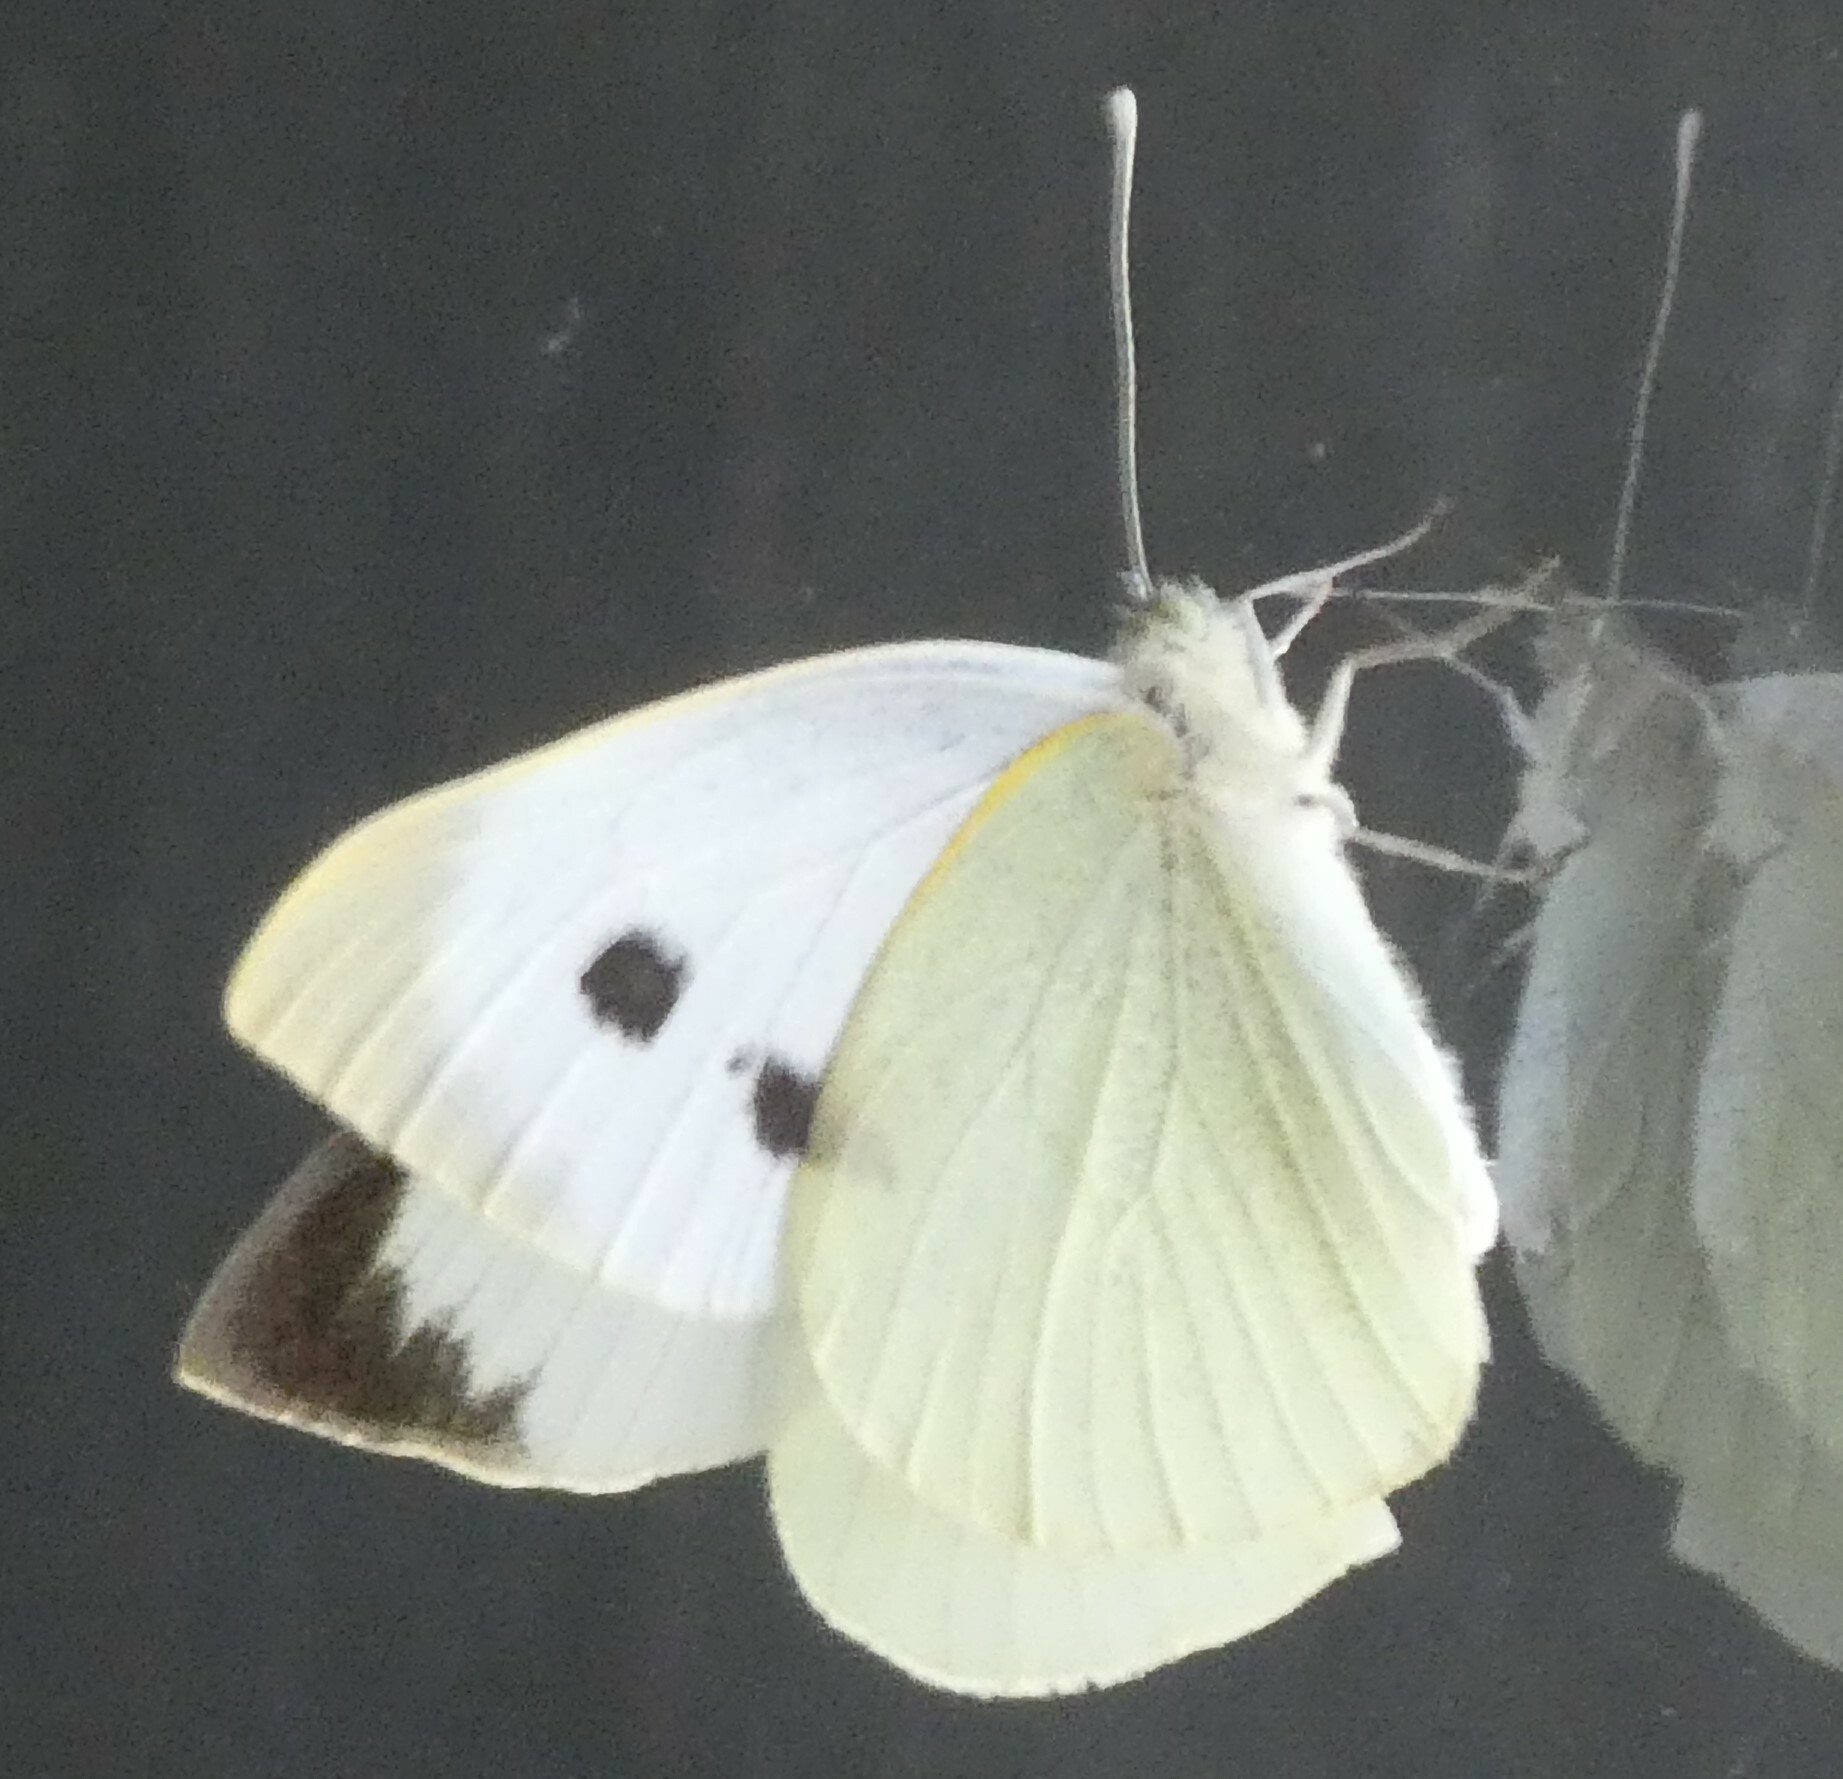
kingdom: Animalia
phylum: Arthropoda
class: Insecta
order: Lepidoptera
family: Pieridae
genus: Pieris
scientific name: Pieris brassicae
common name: Large white
